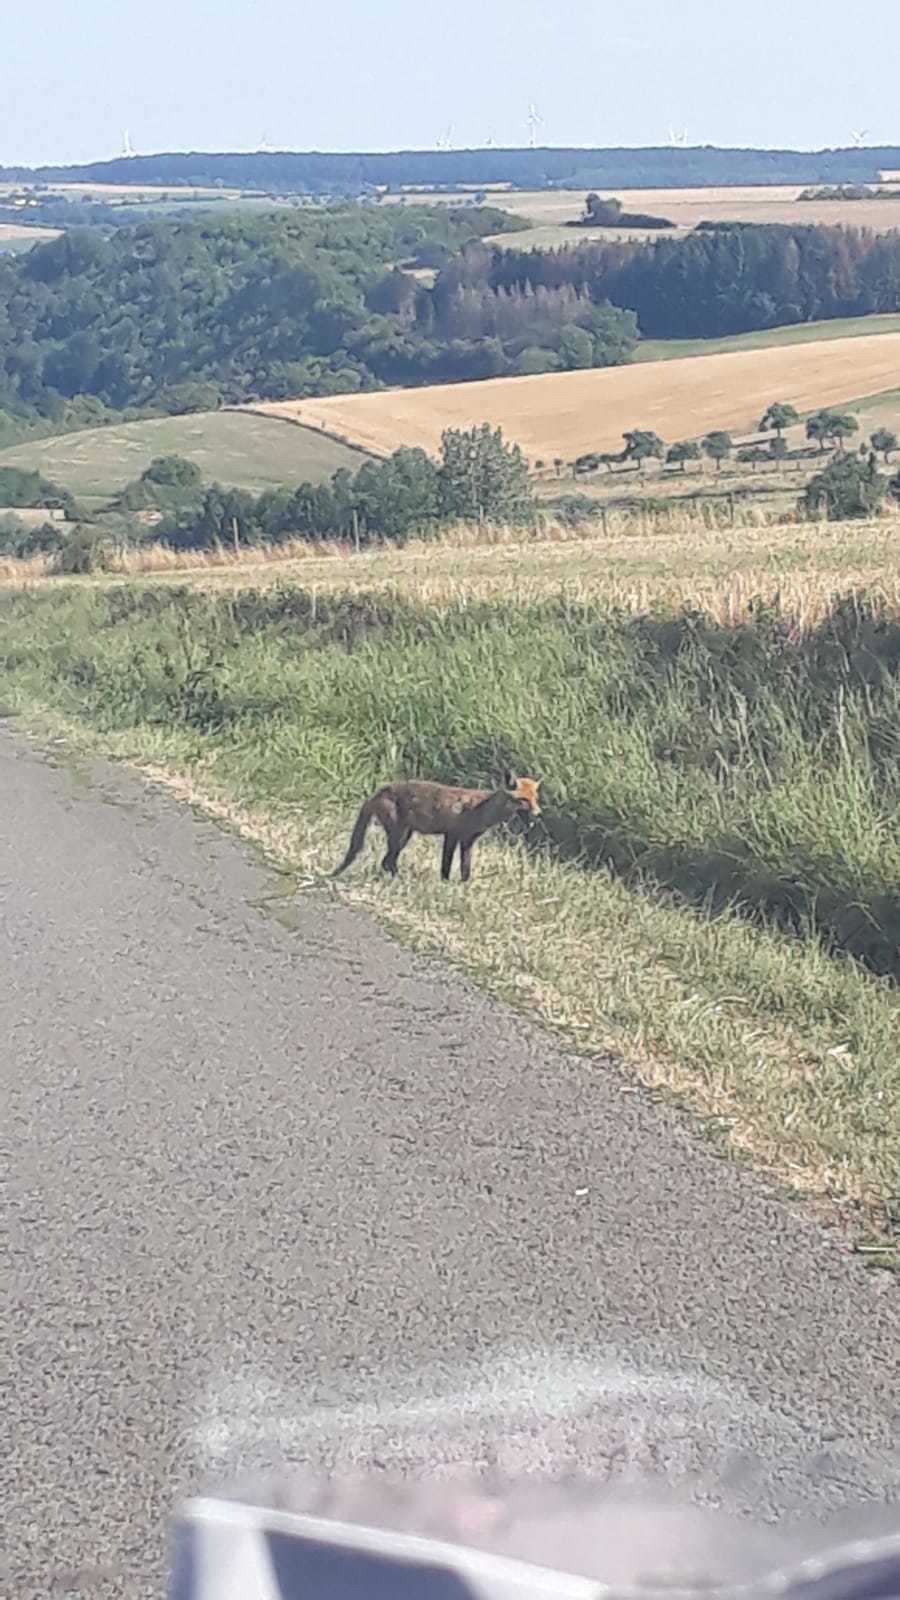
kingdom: Animalia
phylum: Chordata
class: Mammalia
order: Carnivora
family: Canidae
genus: Vulpes
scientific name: Vulpes vulpes
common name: Red fox
